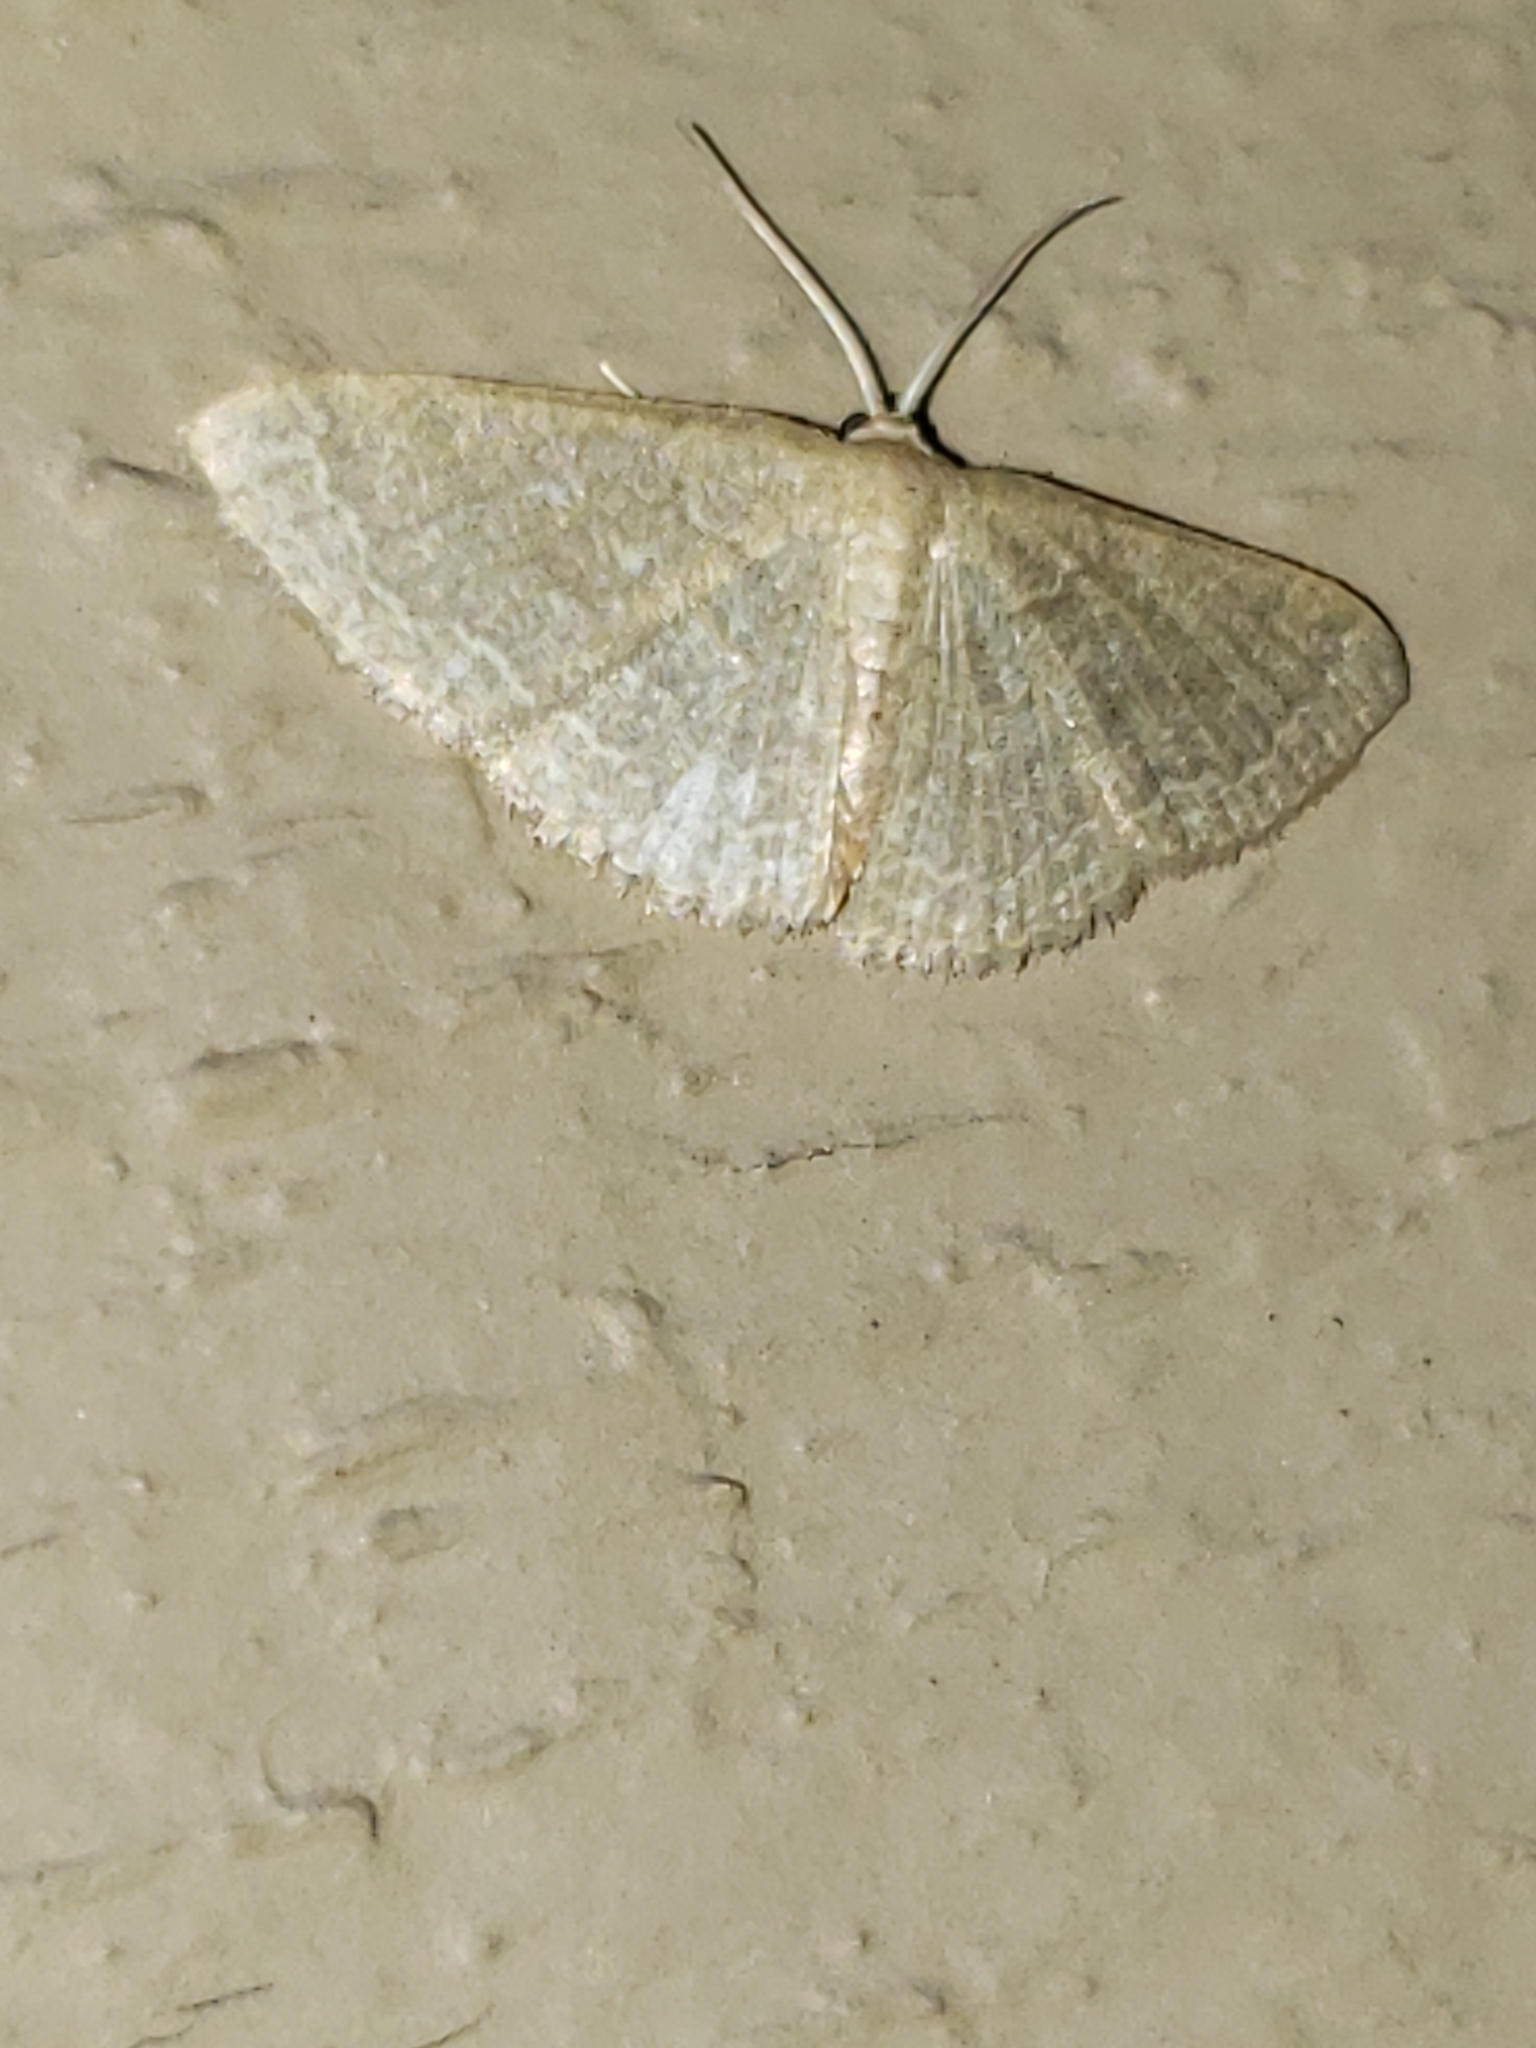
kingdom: Animalia
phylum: Arthropoda
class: Insecta
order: Lepidoptera
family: Geometridae
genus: Pleuroprucha
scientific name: Pleuroprucha insulsaria
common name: Common tan wave
